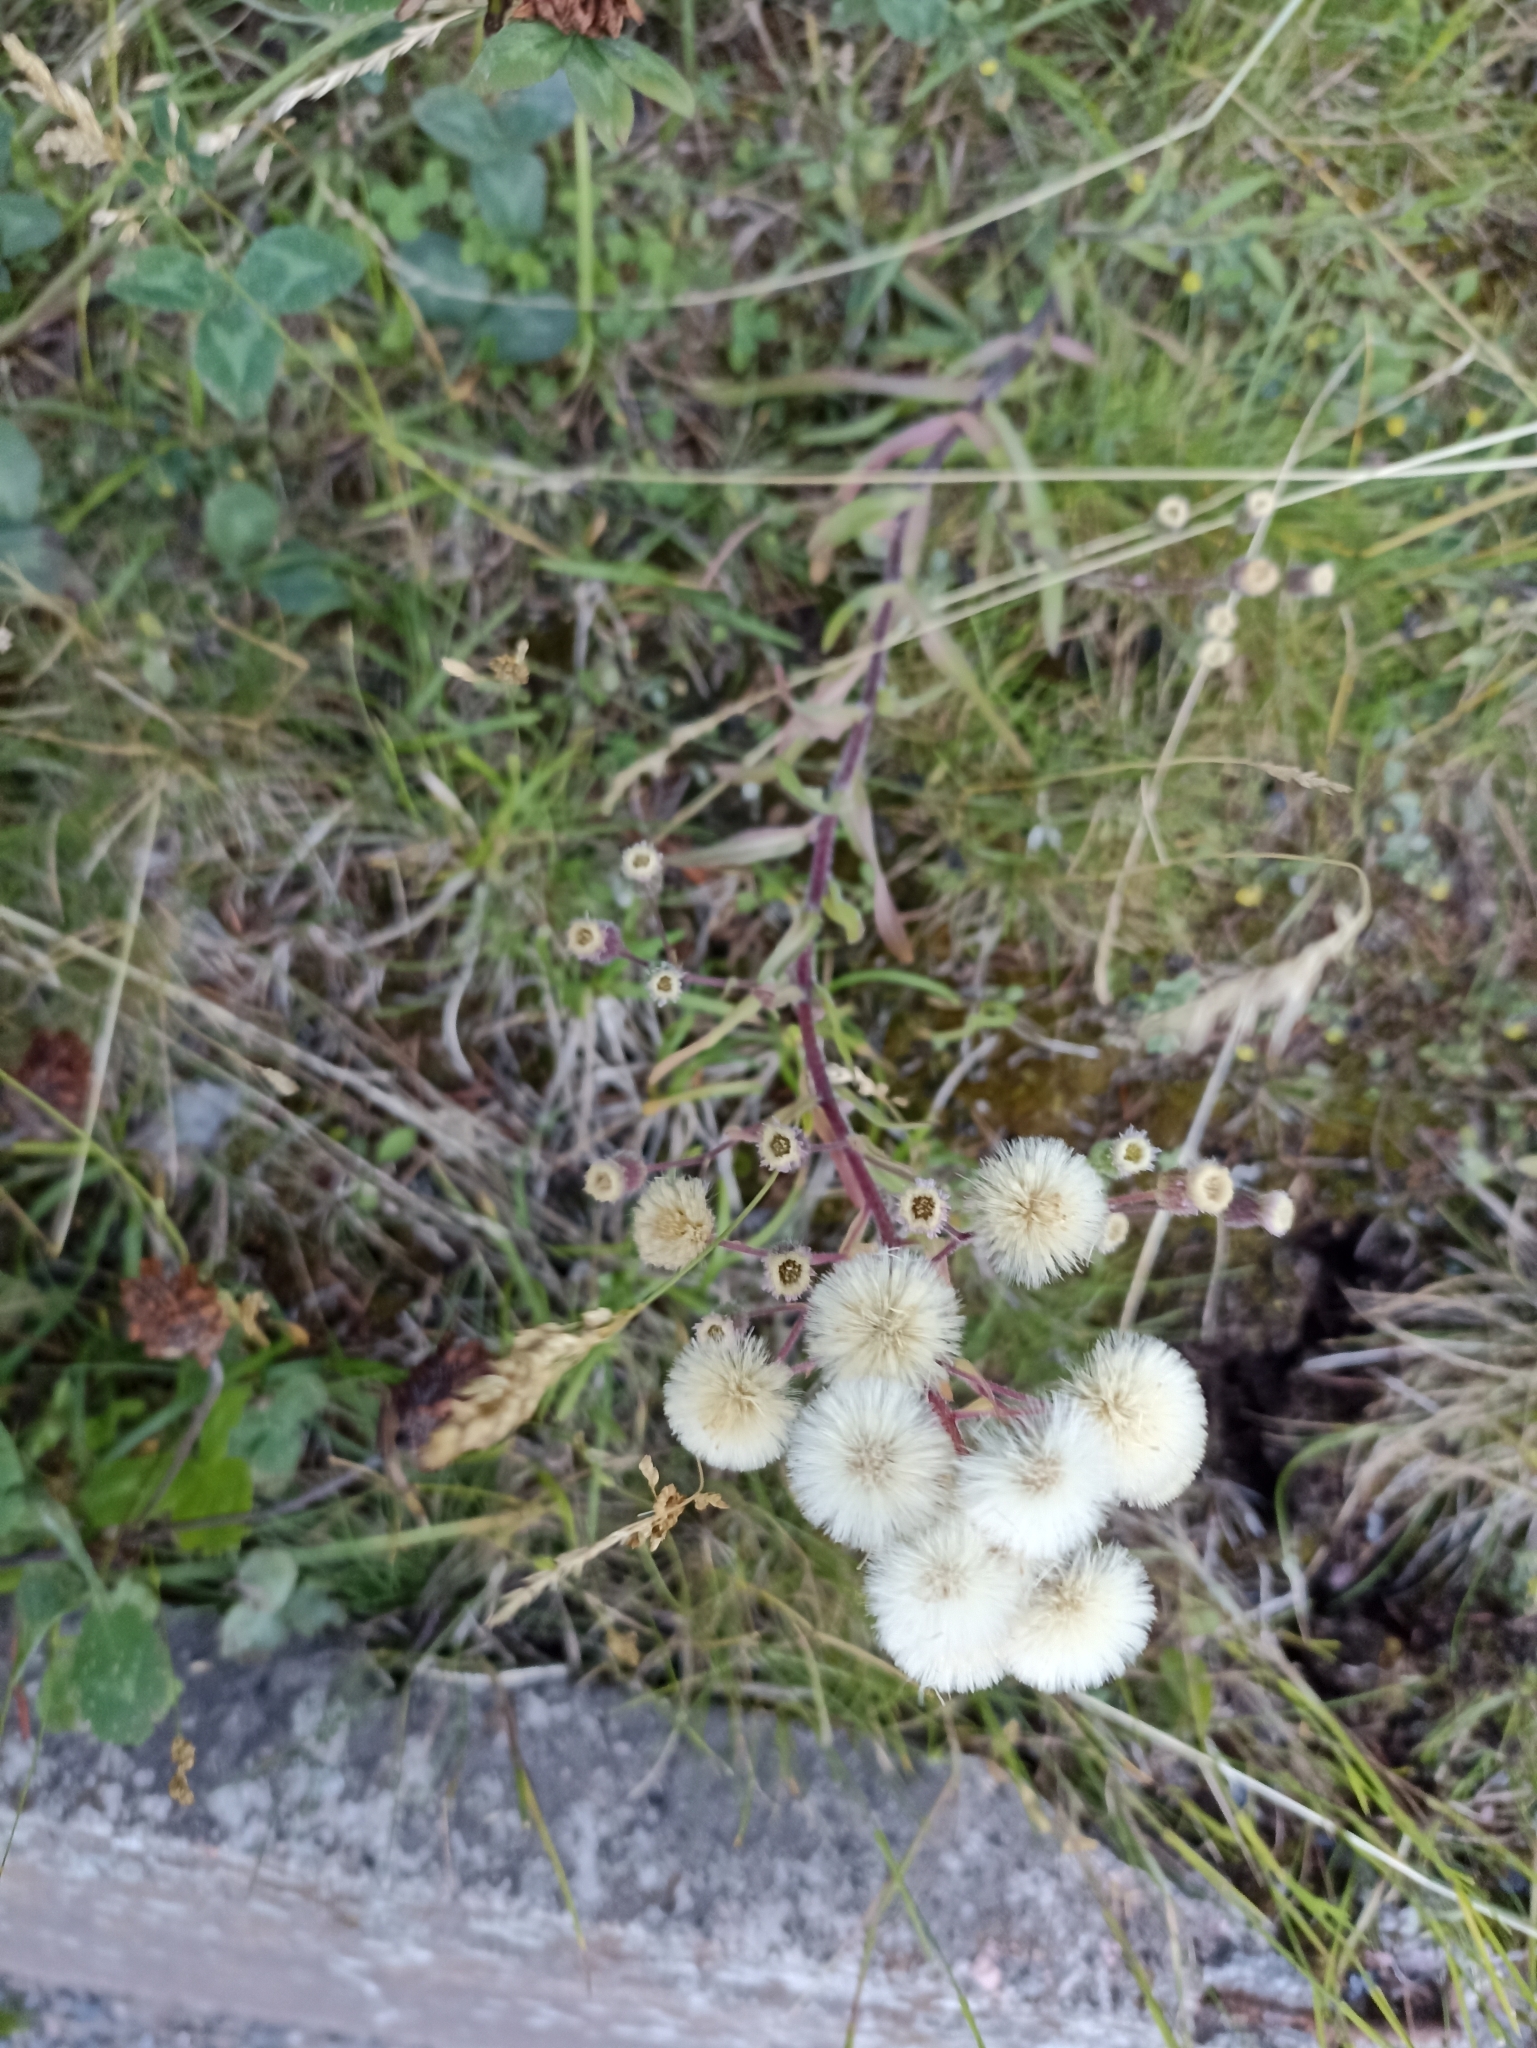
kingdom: Plantae
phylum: Tracheophyta
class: Magnoliopsida
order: Asterales
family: Asteraceae
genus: Erigeron
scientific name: Erigeron acris
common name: Blue fleabane
